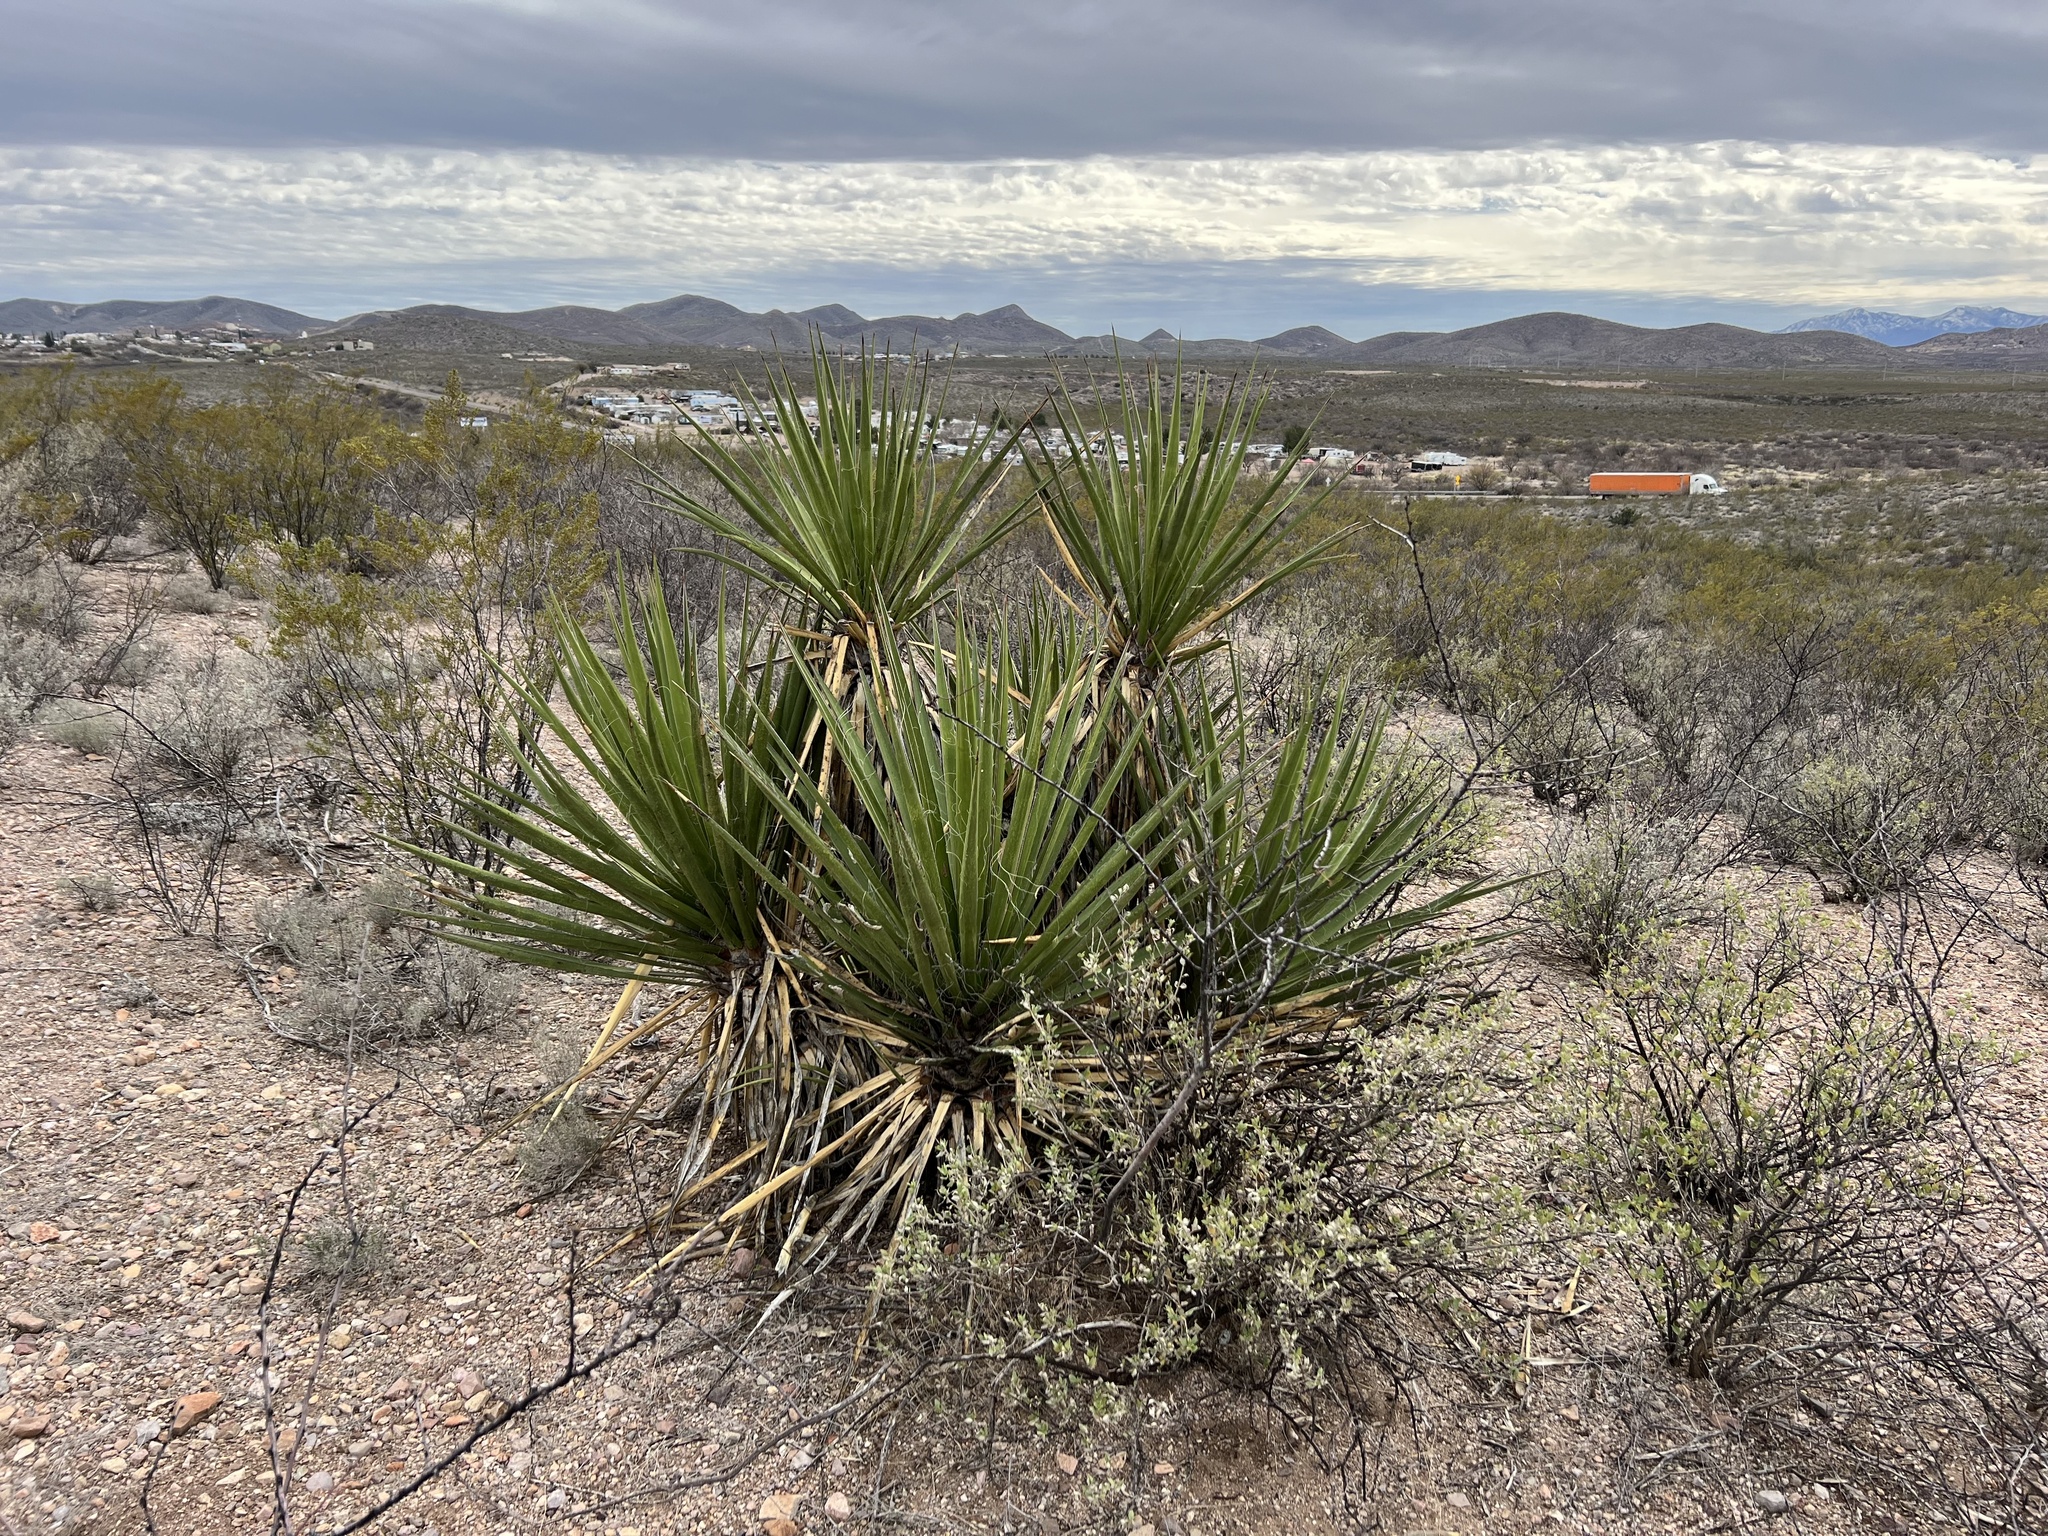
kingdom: Plantae
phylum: Tracheophyta
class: Liliopsida
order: Asparagales
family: Asparagaceae
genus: Yucca
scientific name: Yucca baccata
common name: Banana yucca
